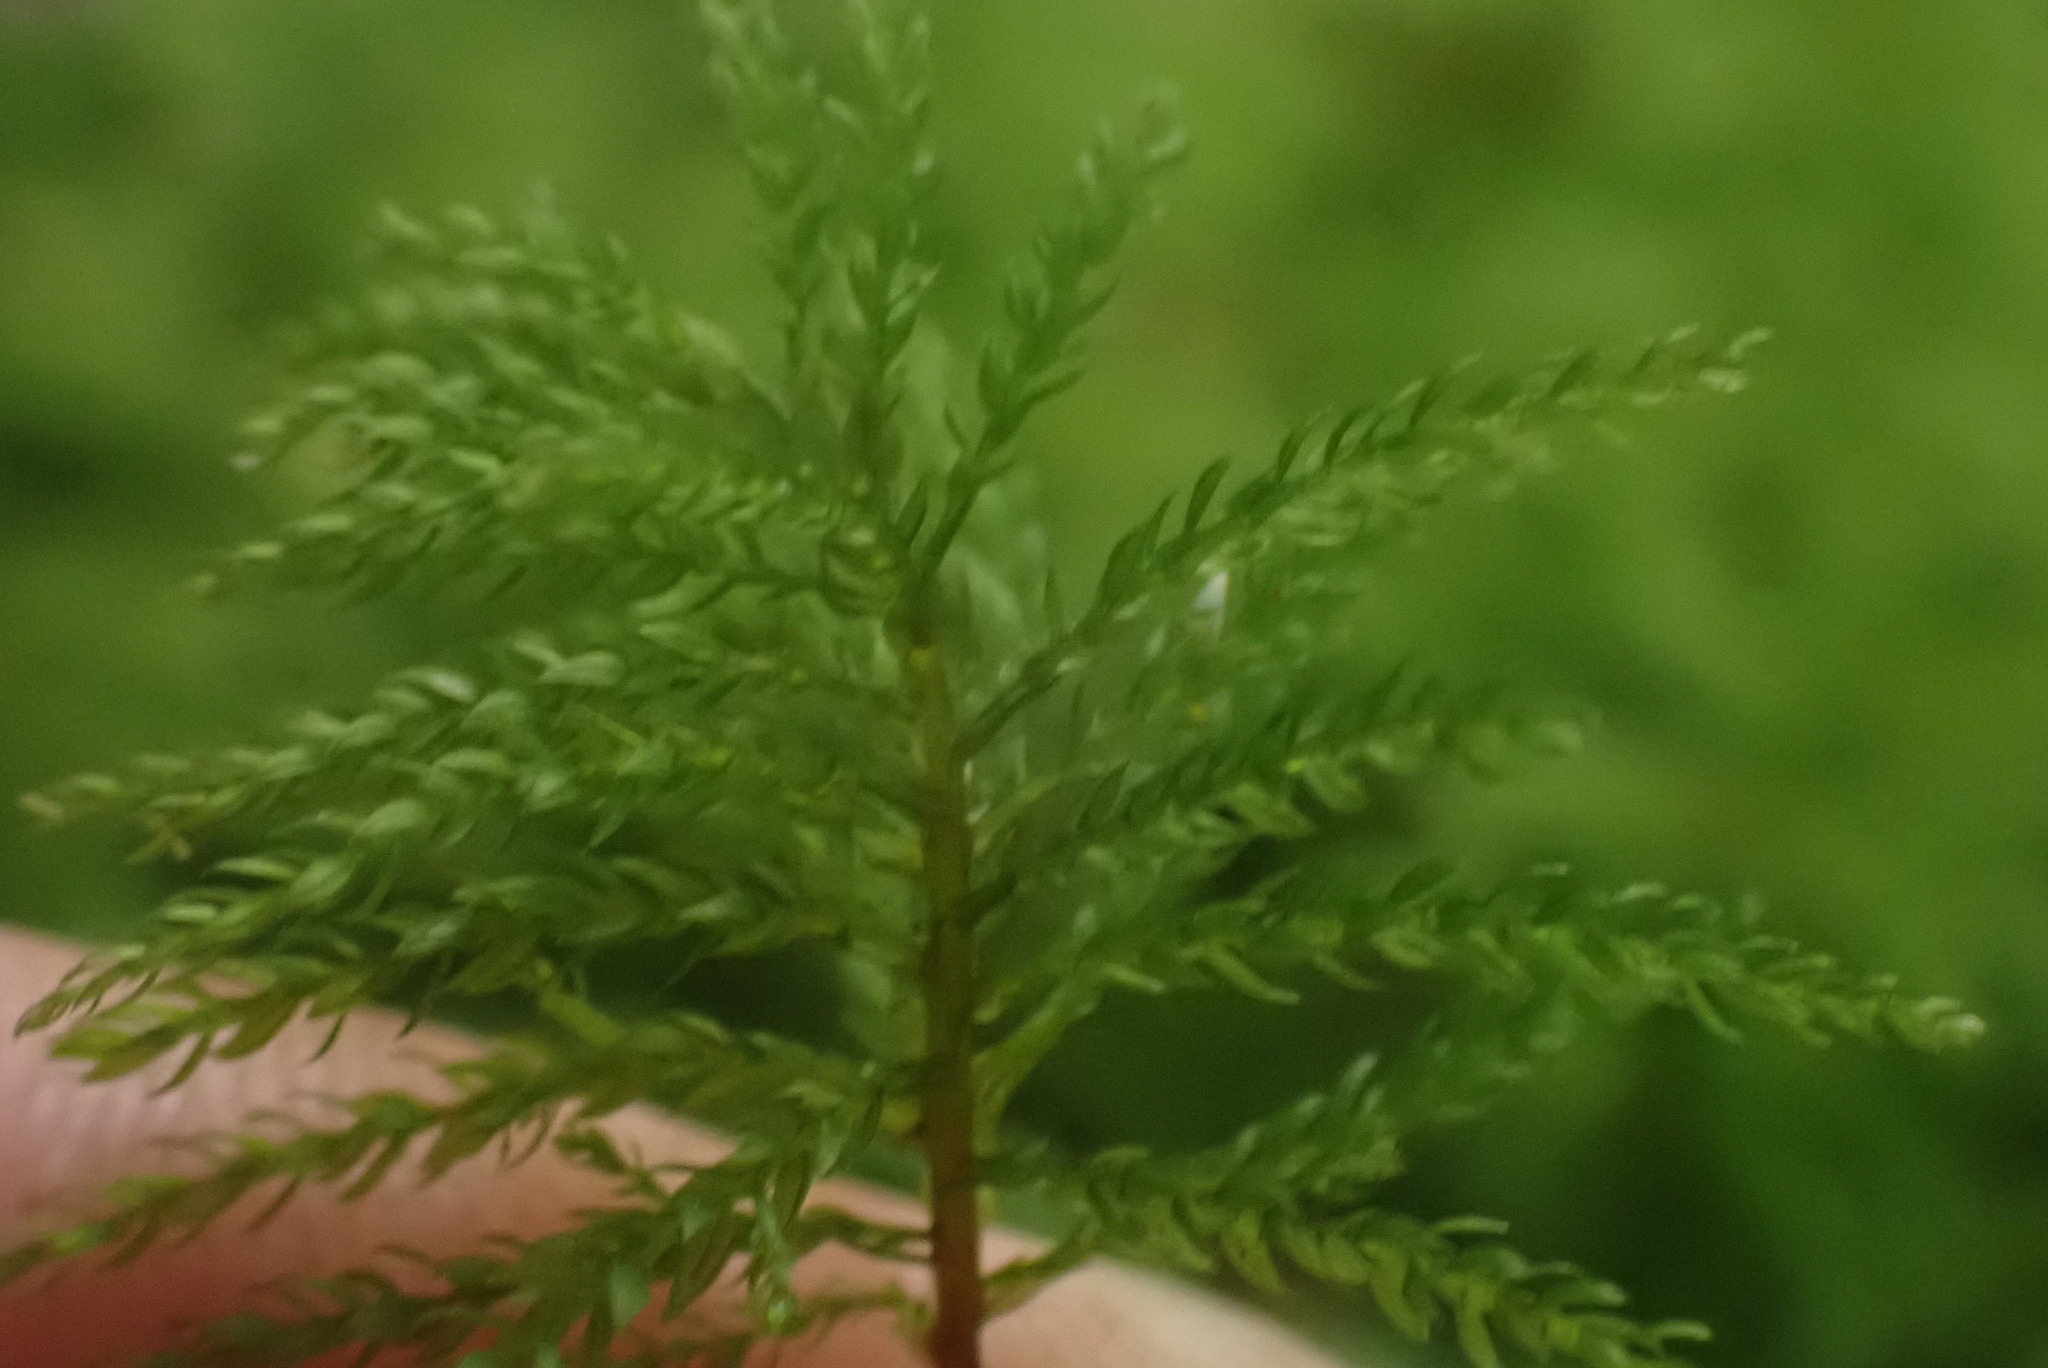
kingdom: Plantae
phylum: Bryophyta
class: Bryopsida
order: Bryales
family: Mniaceae
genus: Leucolepis
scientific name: Leucolepis acanthoneura
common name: Leucolepis umbrella moss
